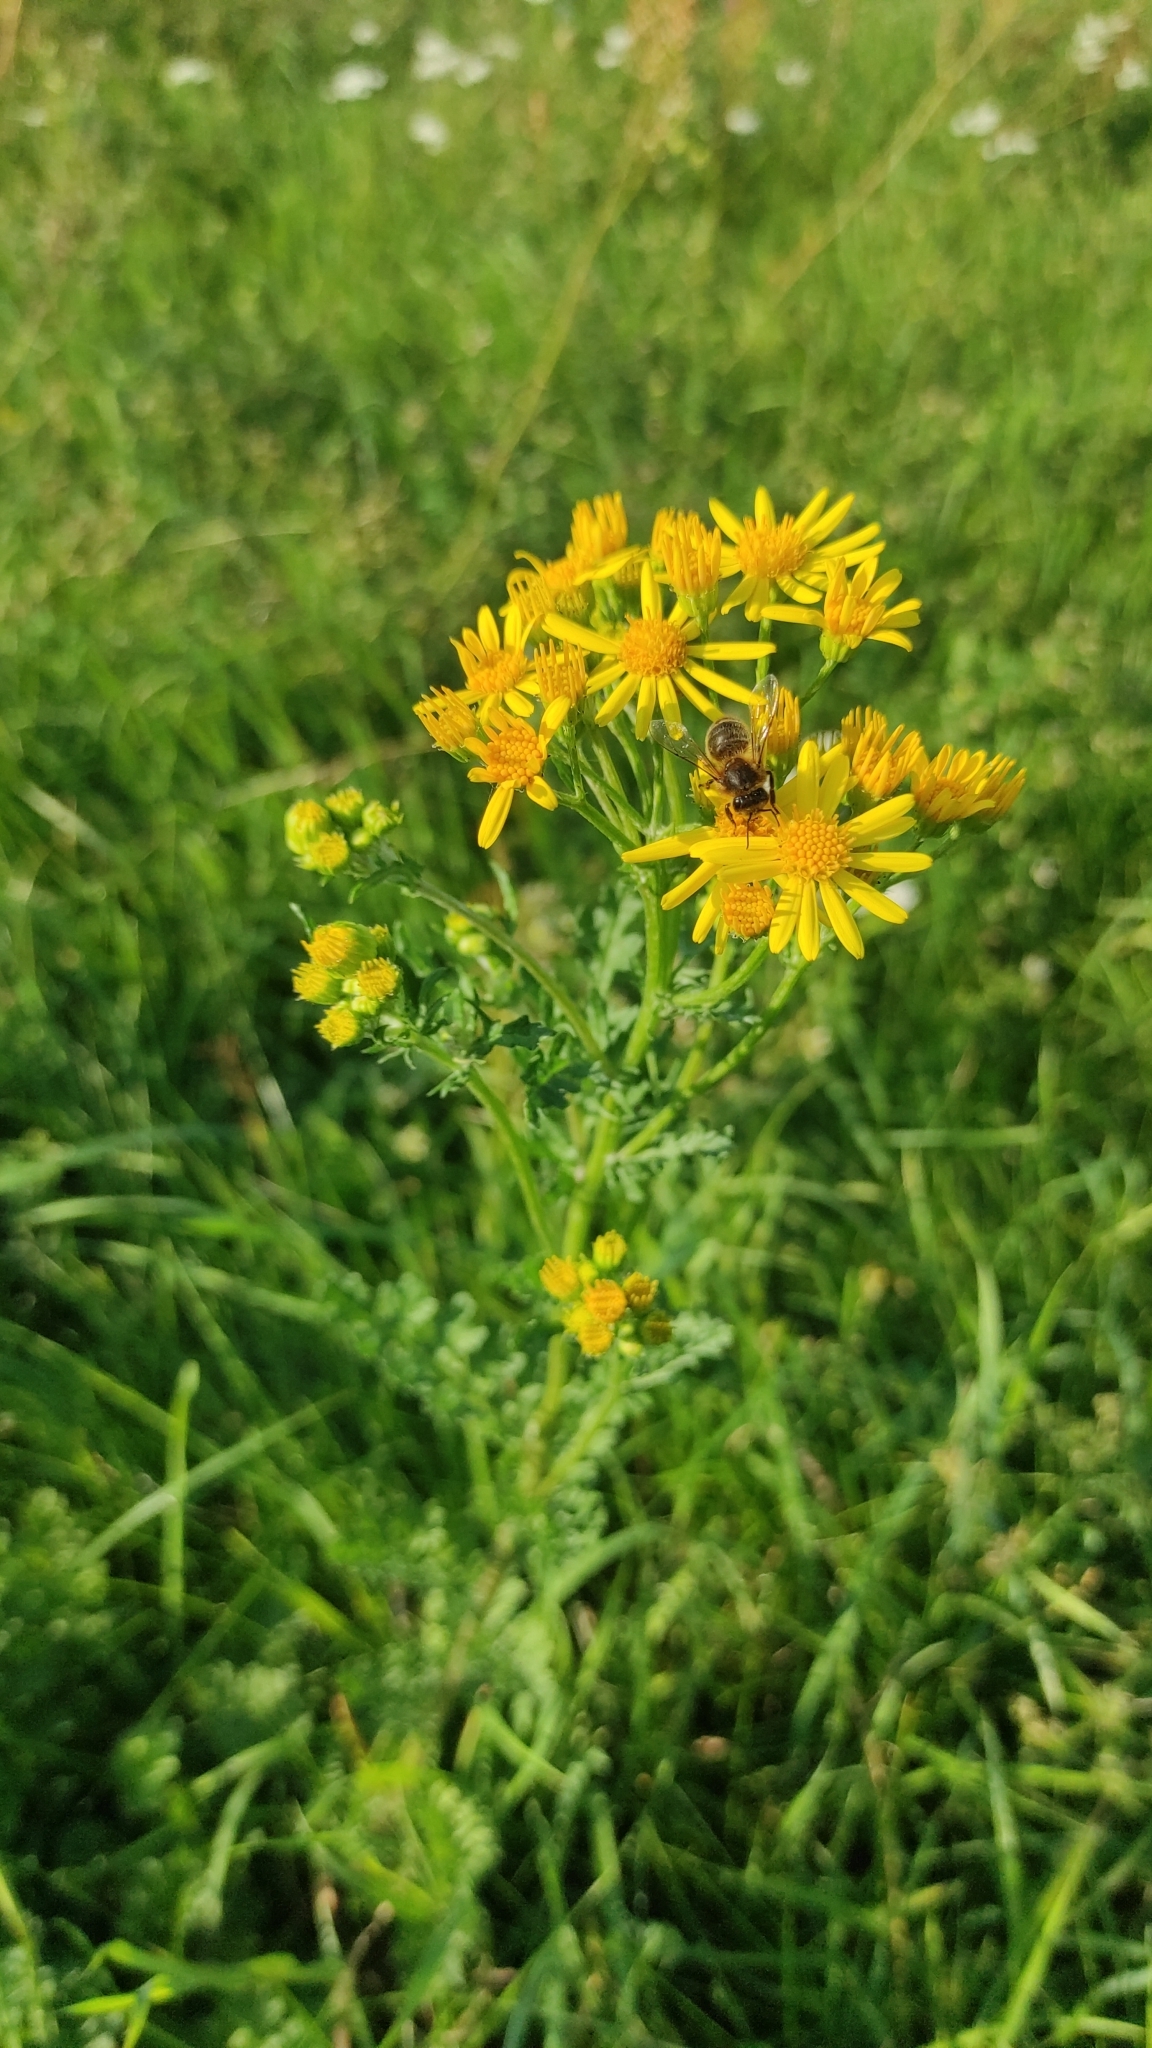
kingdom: Plantae
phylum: Tracheophyta
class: Magnoliopsida
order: Asterales
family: Asteraceae
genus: Jacobaea
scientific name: Jacobaea vulgaris
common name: Stinking willie
